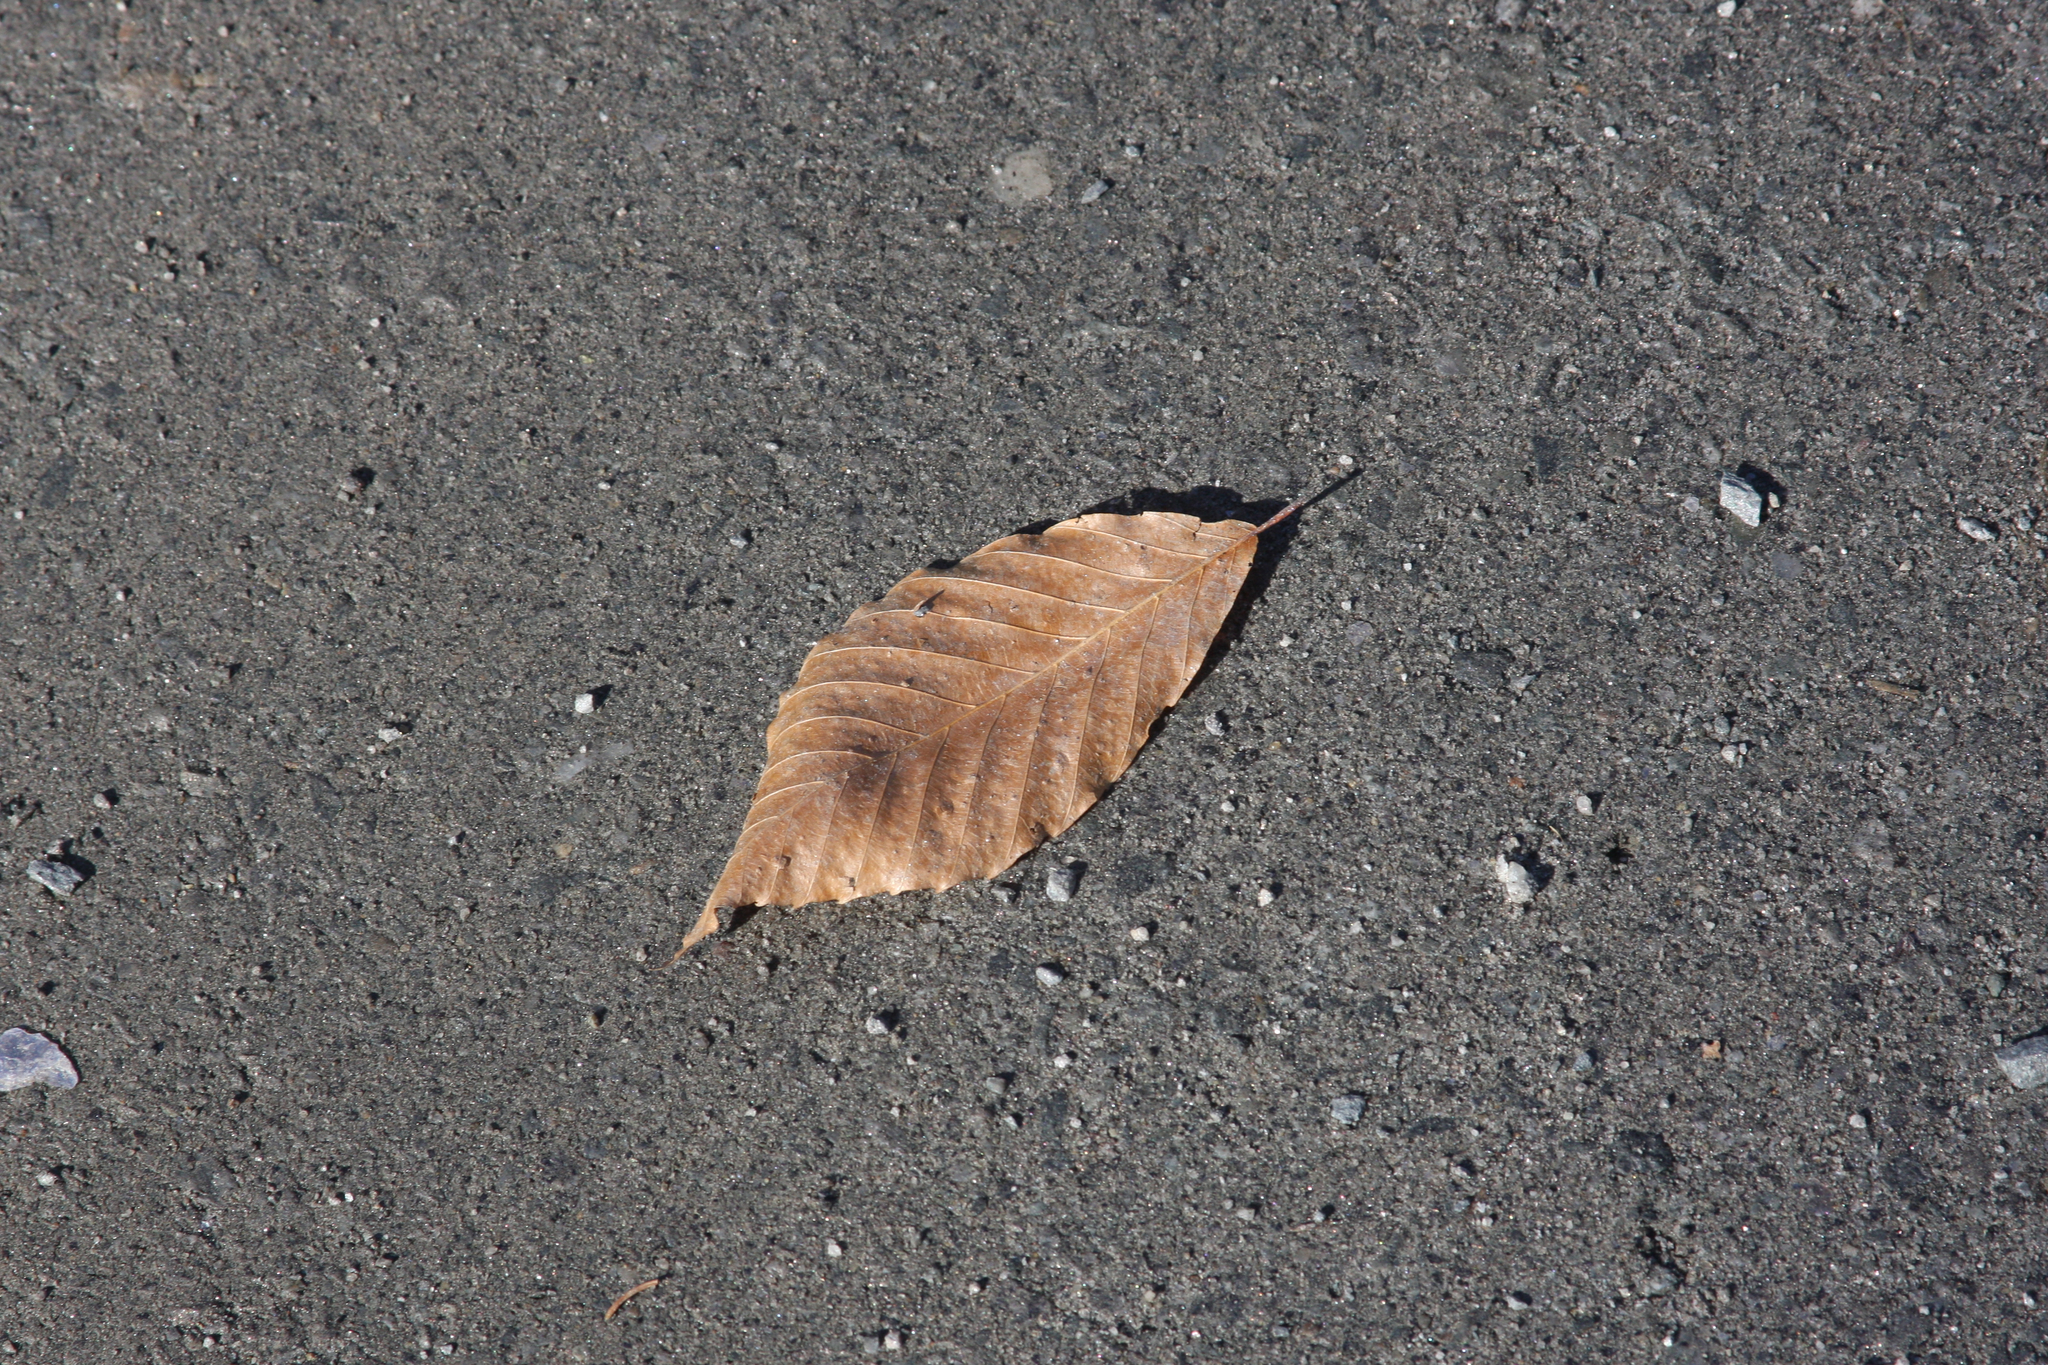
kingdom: Plantae
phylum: Tracheophyta
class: Magnoliopsida
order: Fagales
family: Fagaceae
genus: Fagus
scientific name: Fagus grandifolia
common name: American beech
